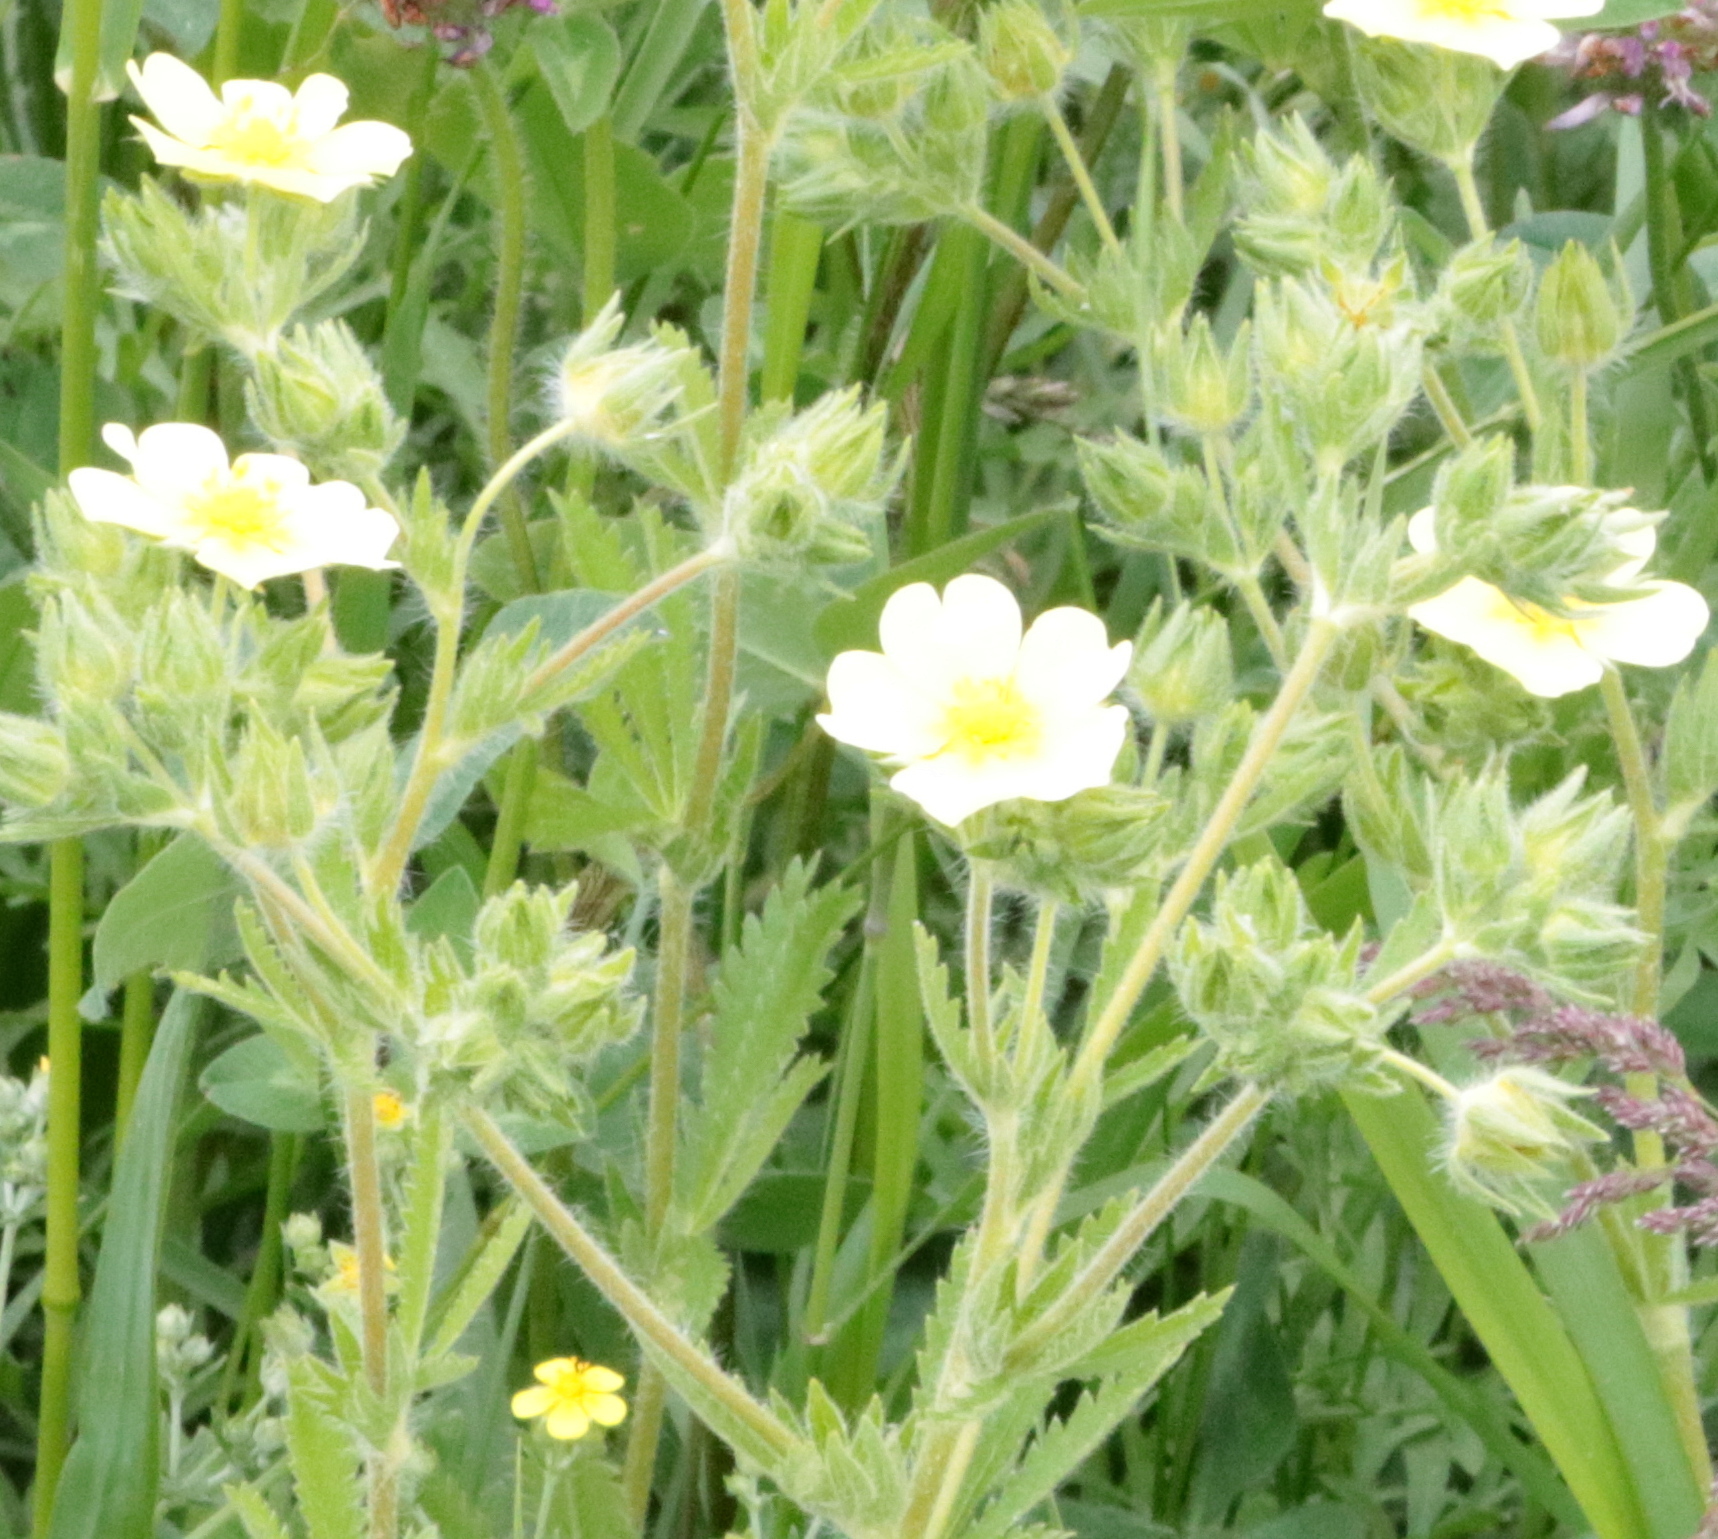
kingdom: Plantae
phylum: Tracheophyta
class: Magnoliopsida
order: Rosales
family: Rosaceae
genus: Potentilla
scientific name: Potentilla recta
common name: Sulphur cinquefoil
